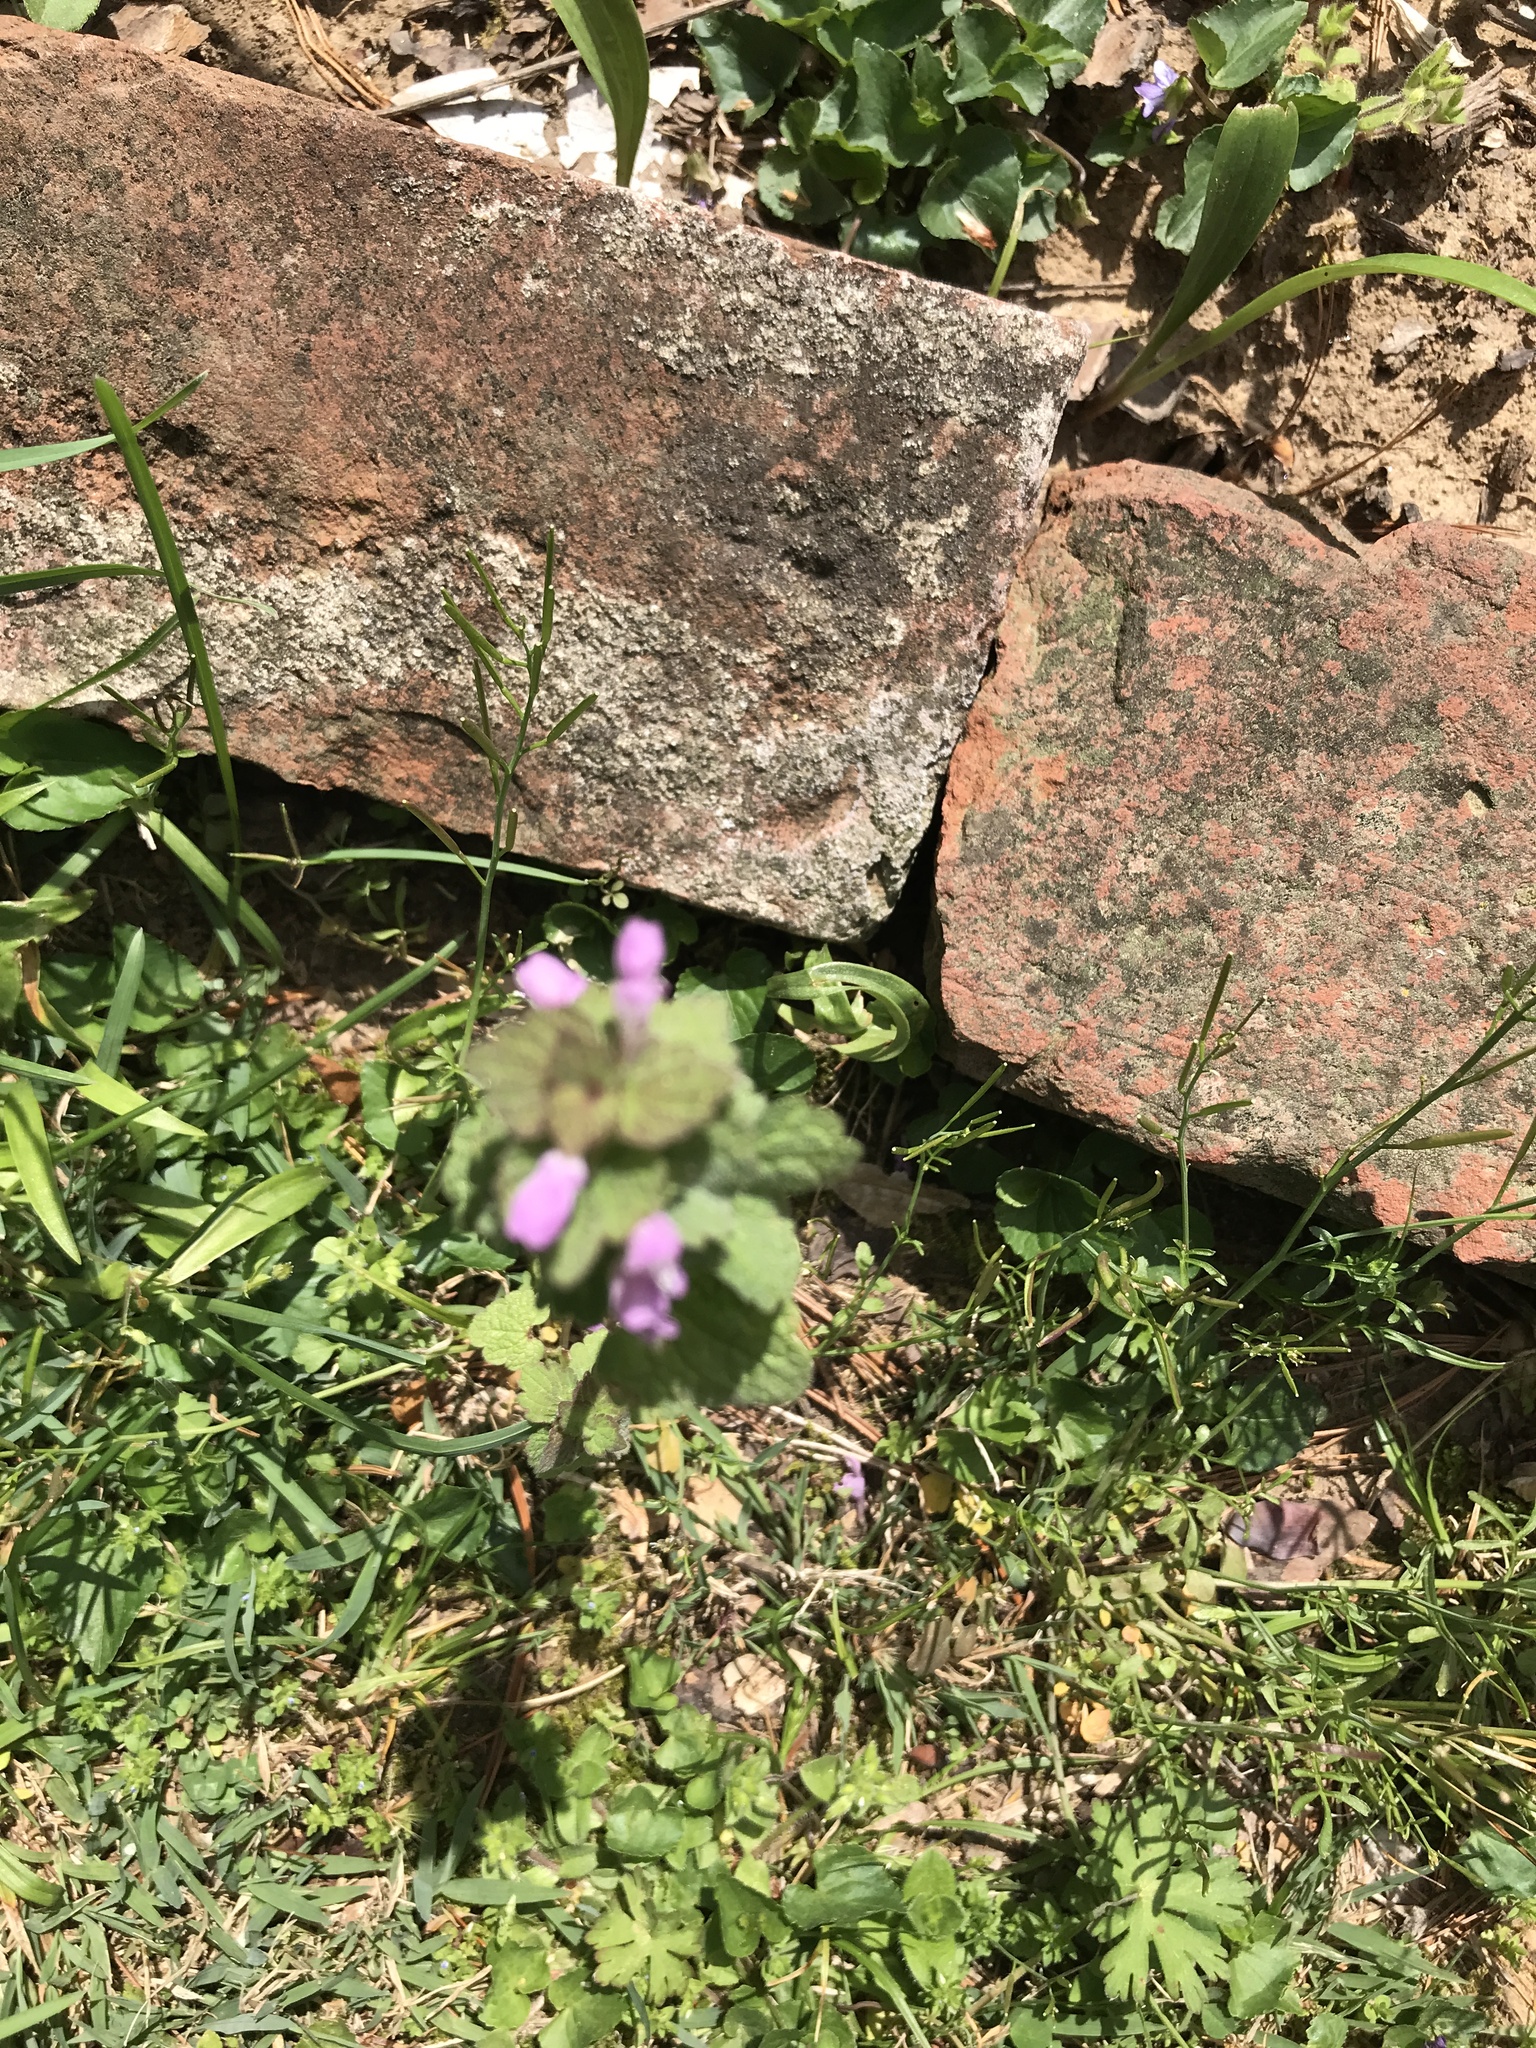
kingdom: Plantae
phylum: Tracheophyta
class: Magnoliopsida
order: Lamiales
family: Lamiaceae
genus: Lamium
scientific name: Lamium purpureum
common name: Red dead-nettle
